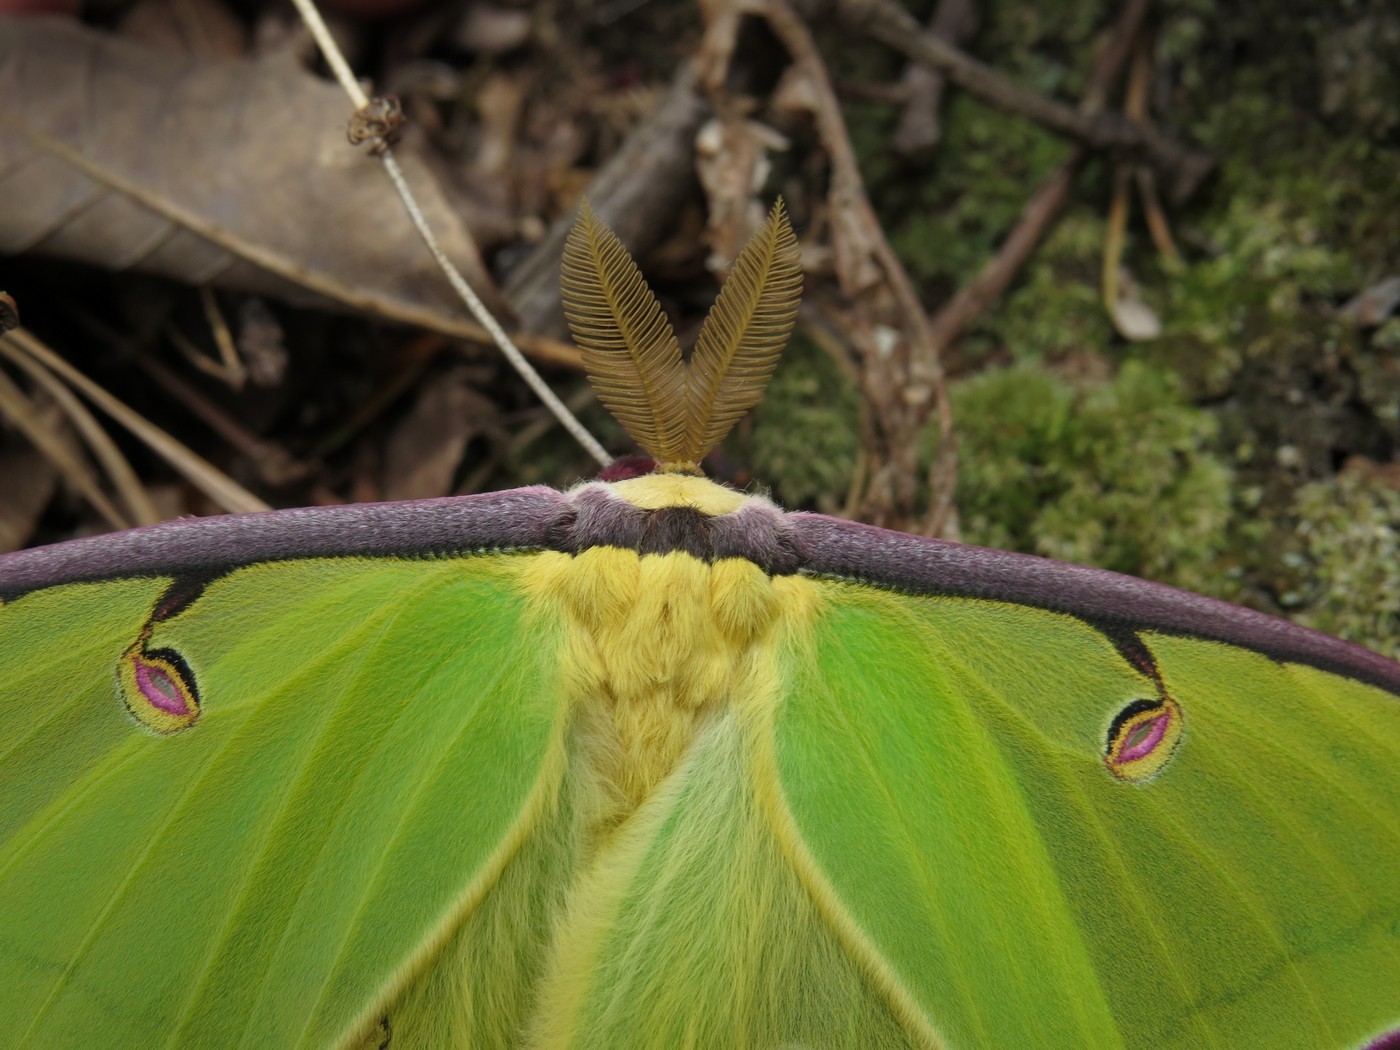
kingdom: Animalia
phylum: Arthropoda
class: Insecta
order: Lepidoptera
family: Saturniidae
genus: Actias
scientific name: Actias luna
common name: Luna moth
